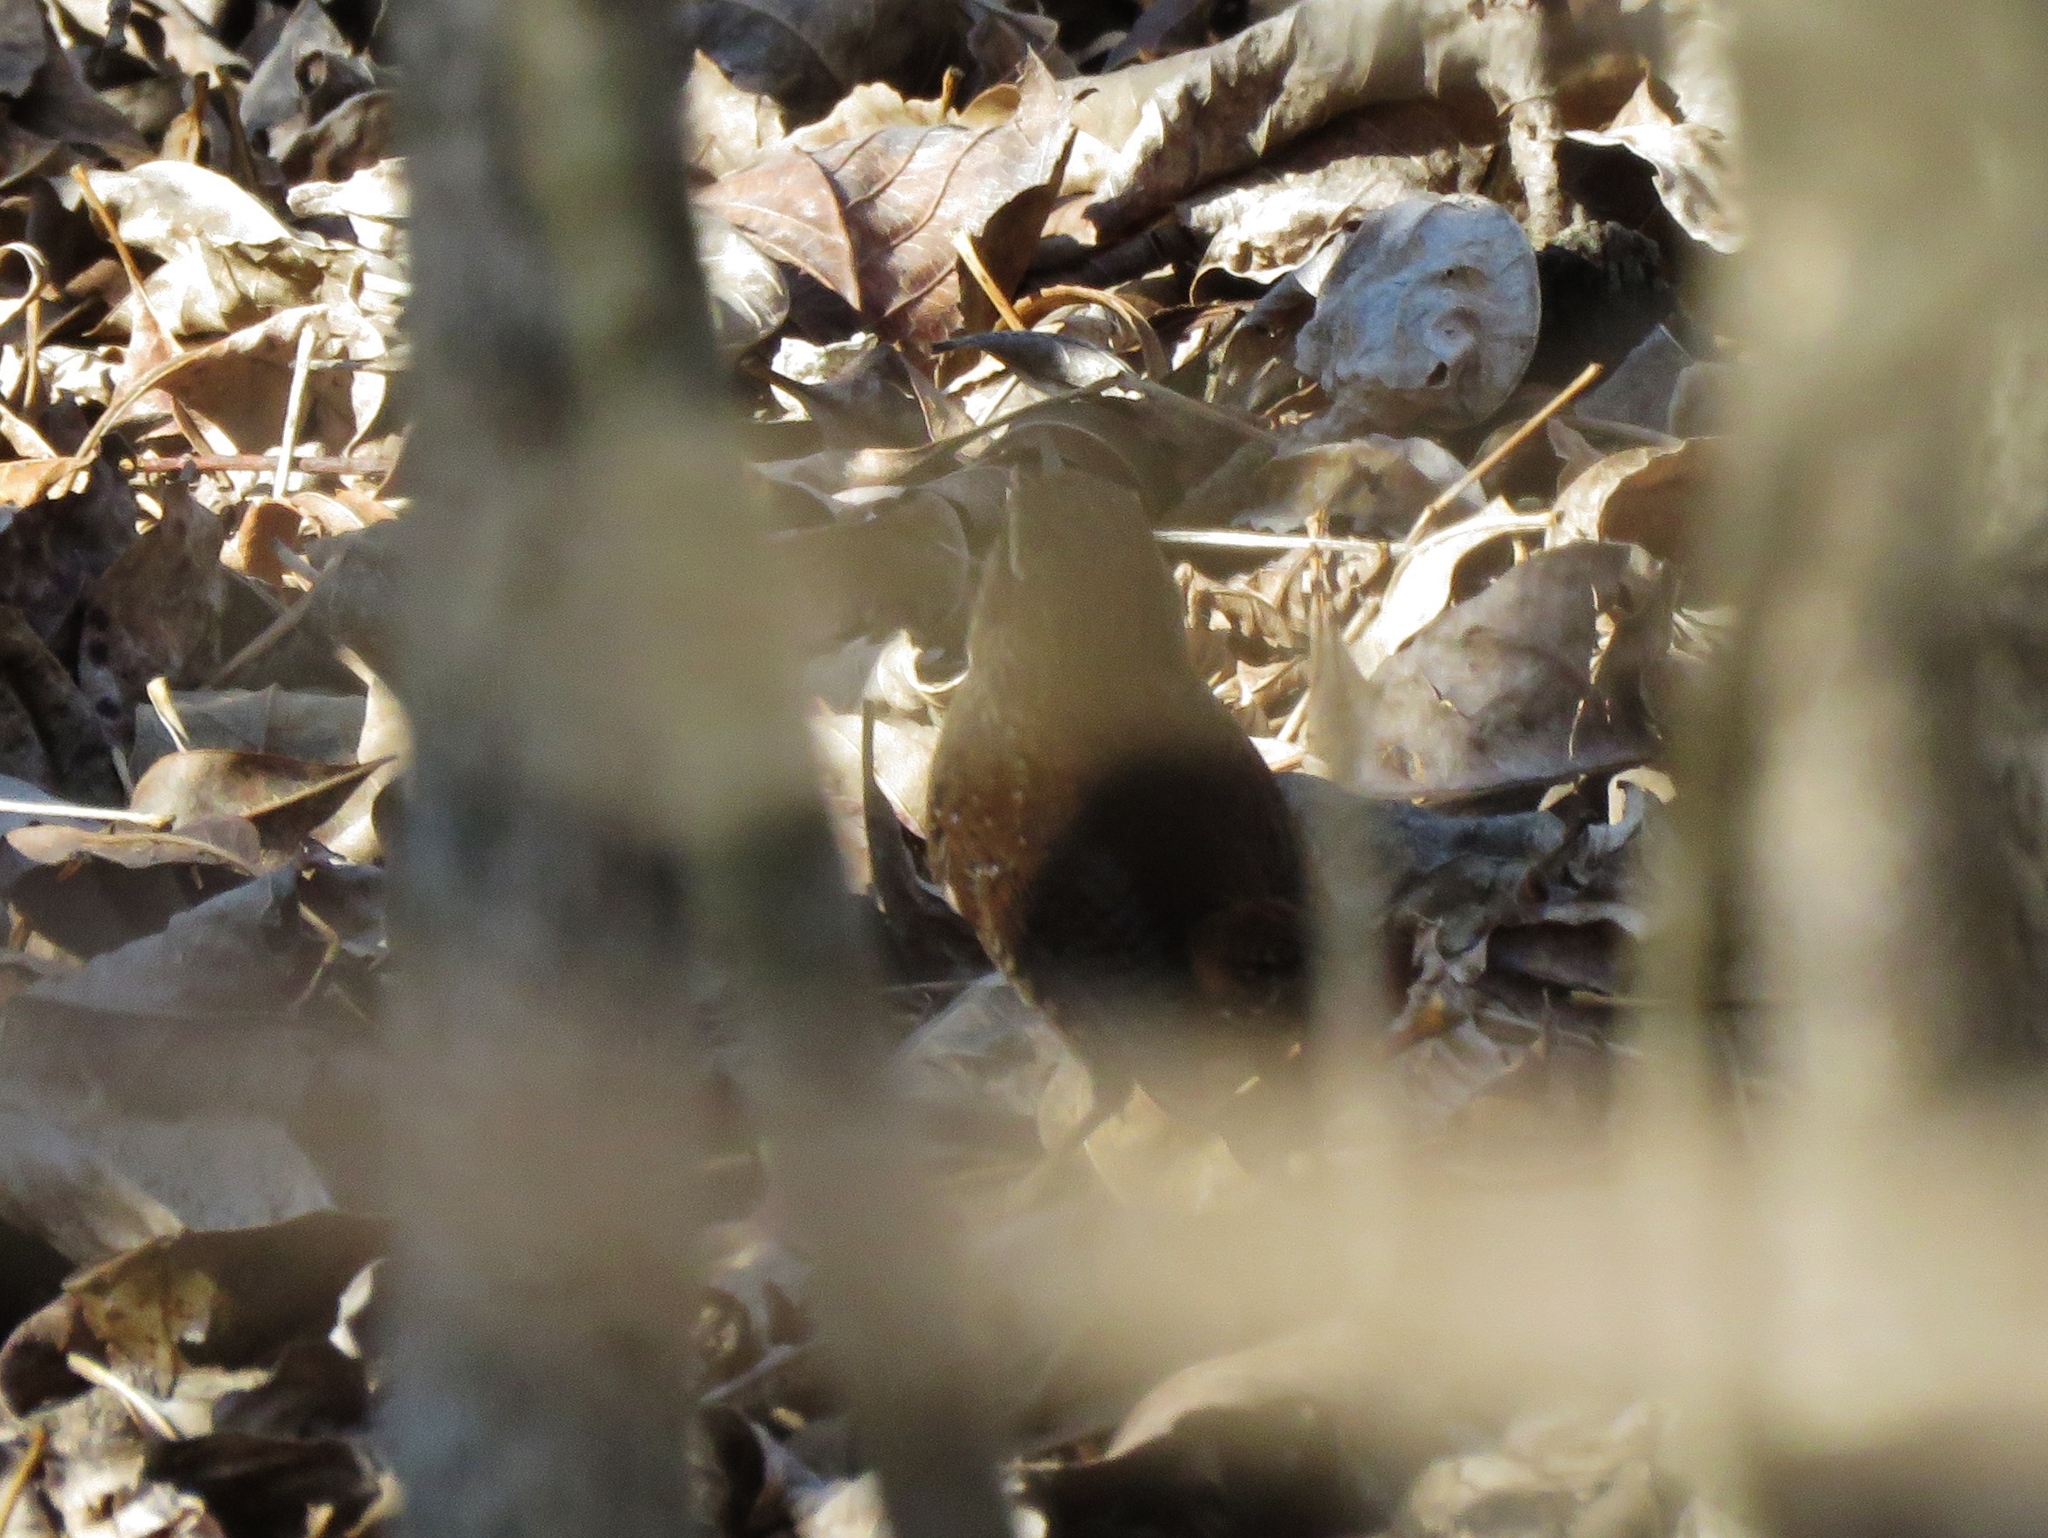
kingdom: Animalia
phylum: Chordata
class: Aves
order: Passeriformes
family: Troglodytidae
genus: Troglodytes
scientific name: Troglodytes hiemalis
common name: Winter wren
